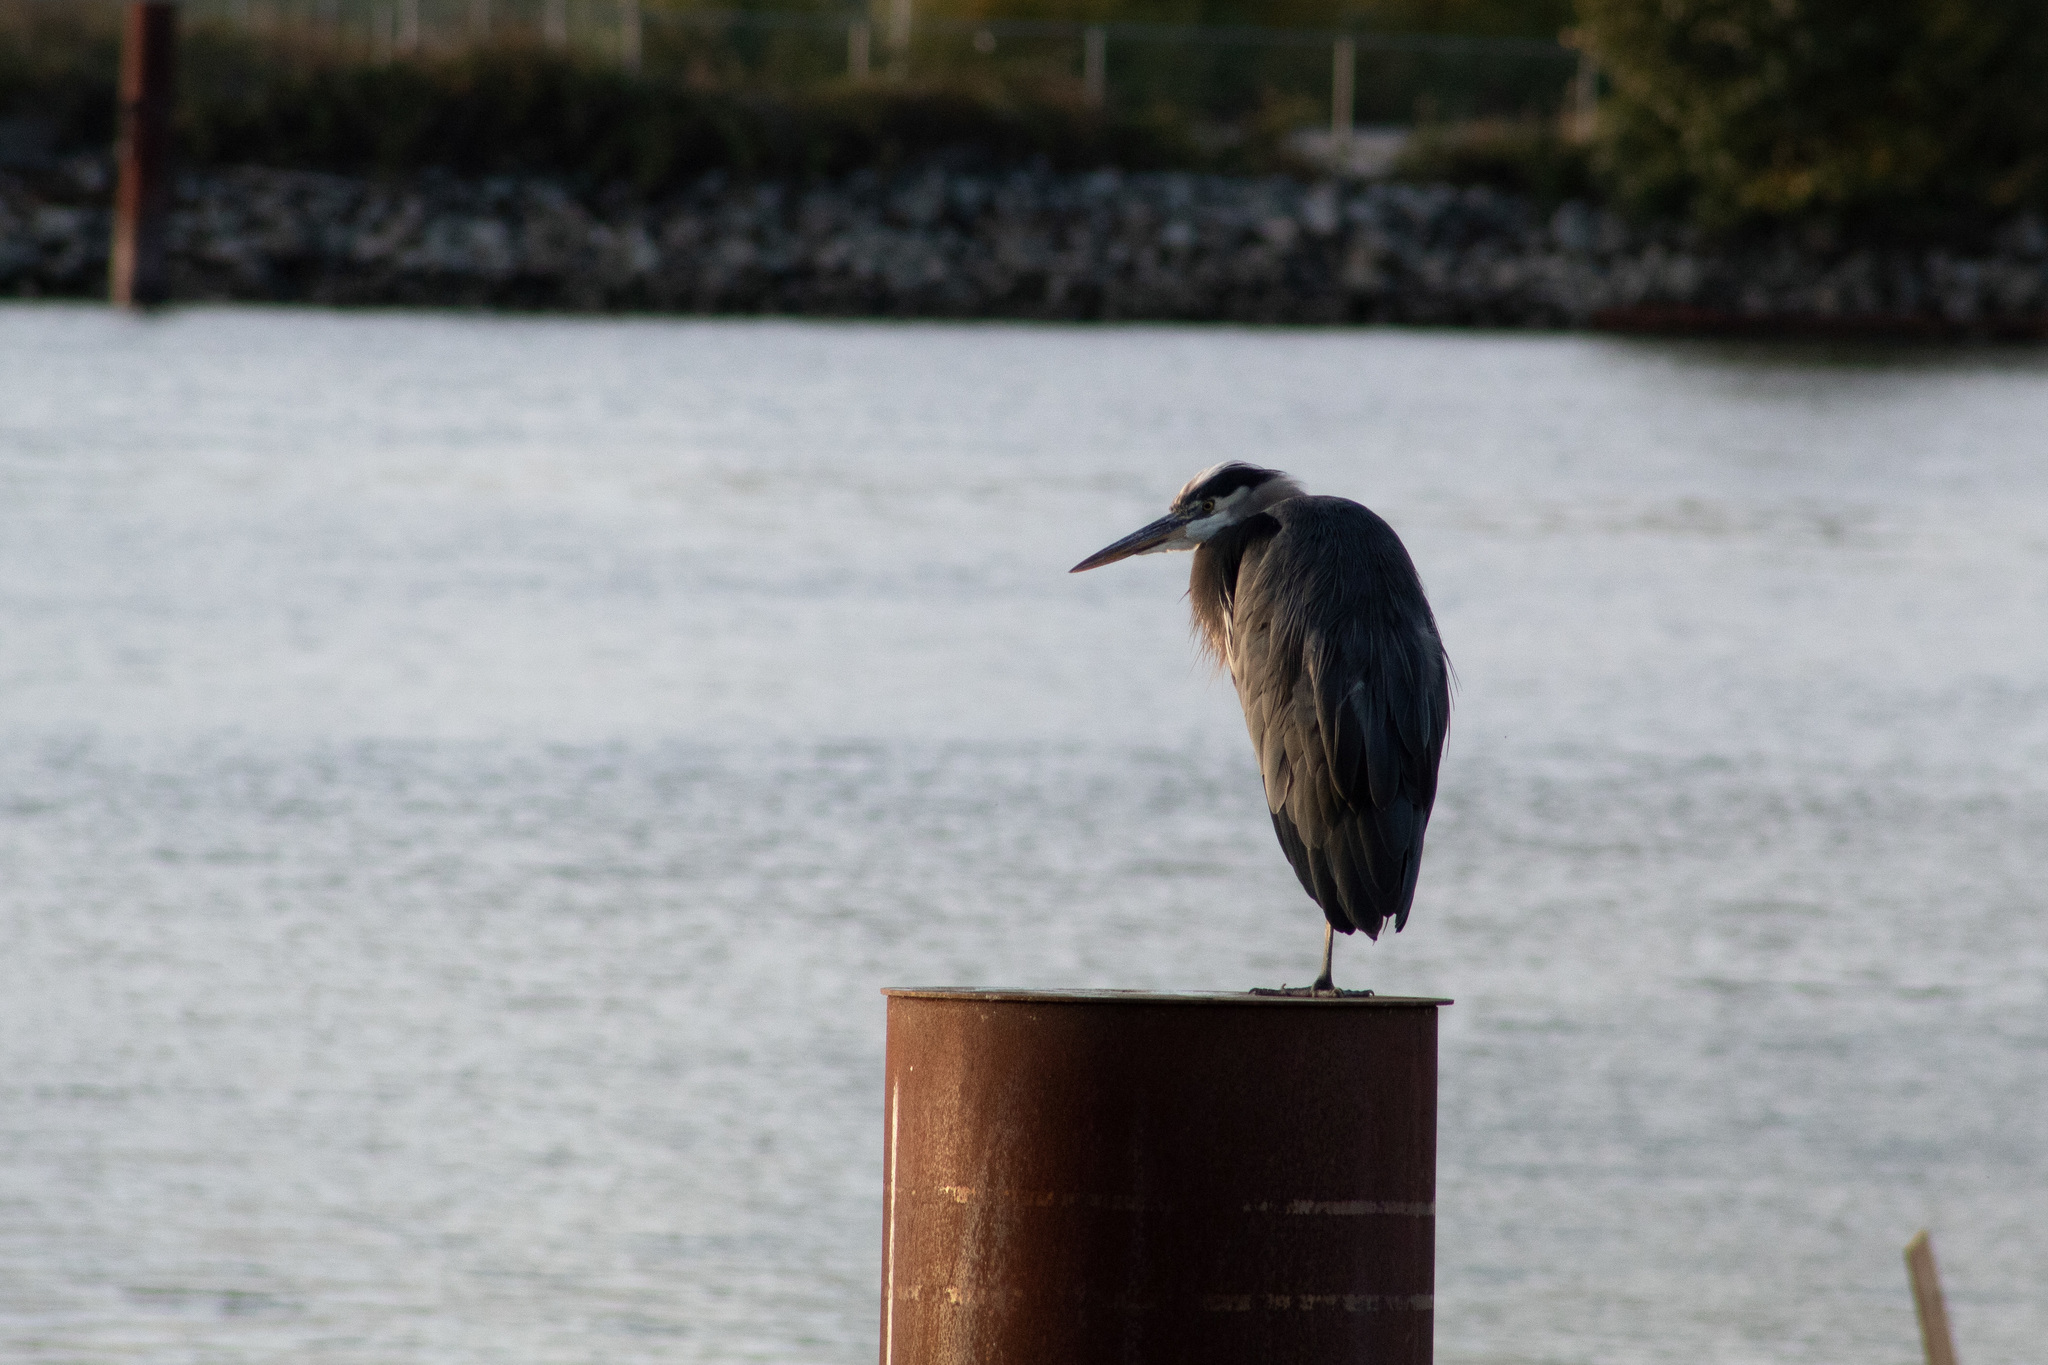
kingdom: Animalia
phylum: Chordata
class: Aves
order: Pelecaniformes
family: Ardeidae
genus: Ardea
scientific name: Ardea herodias
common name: Great blue heron
